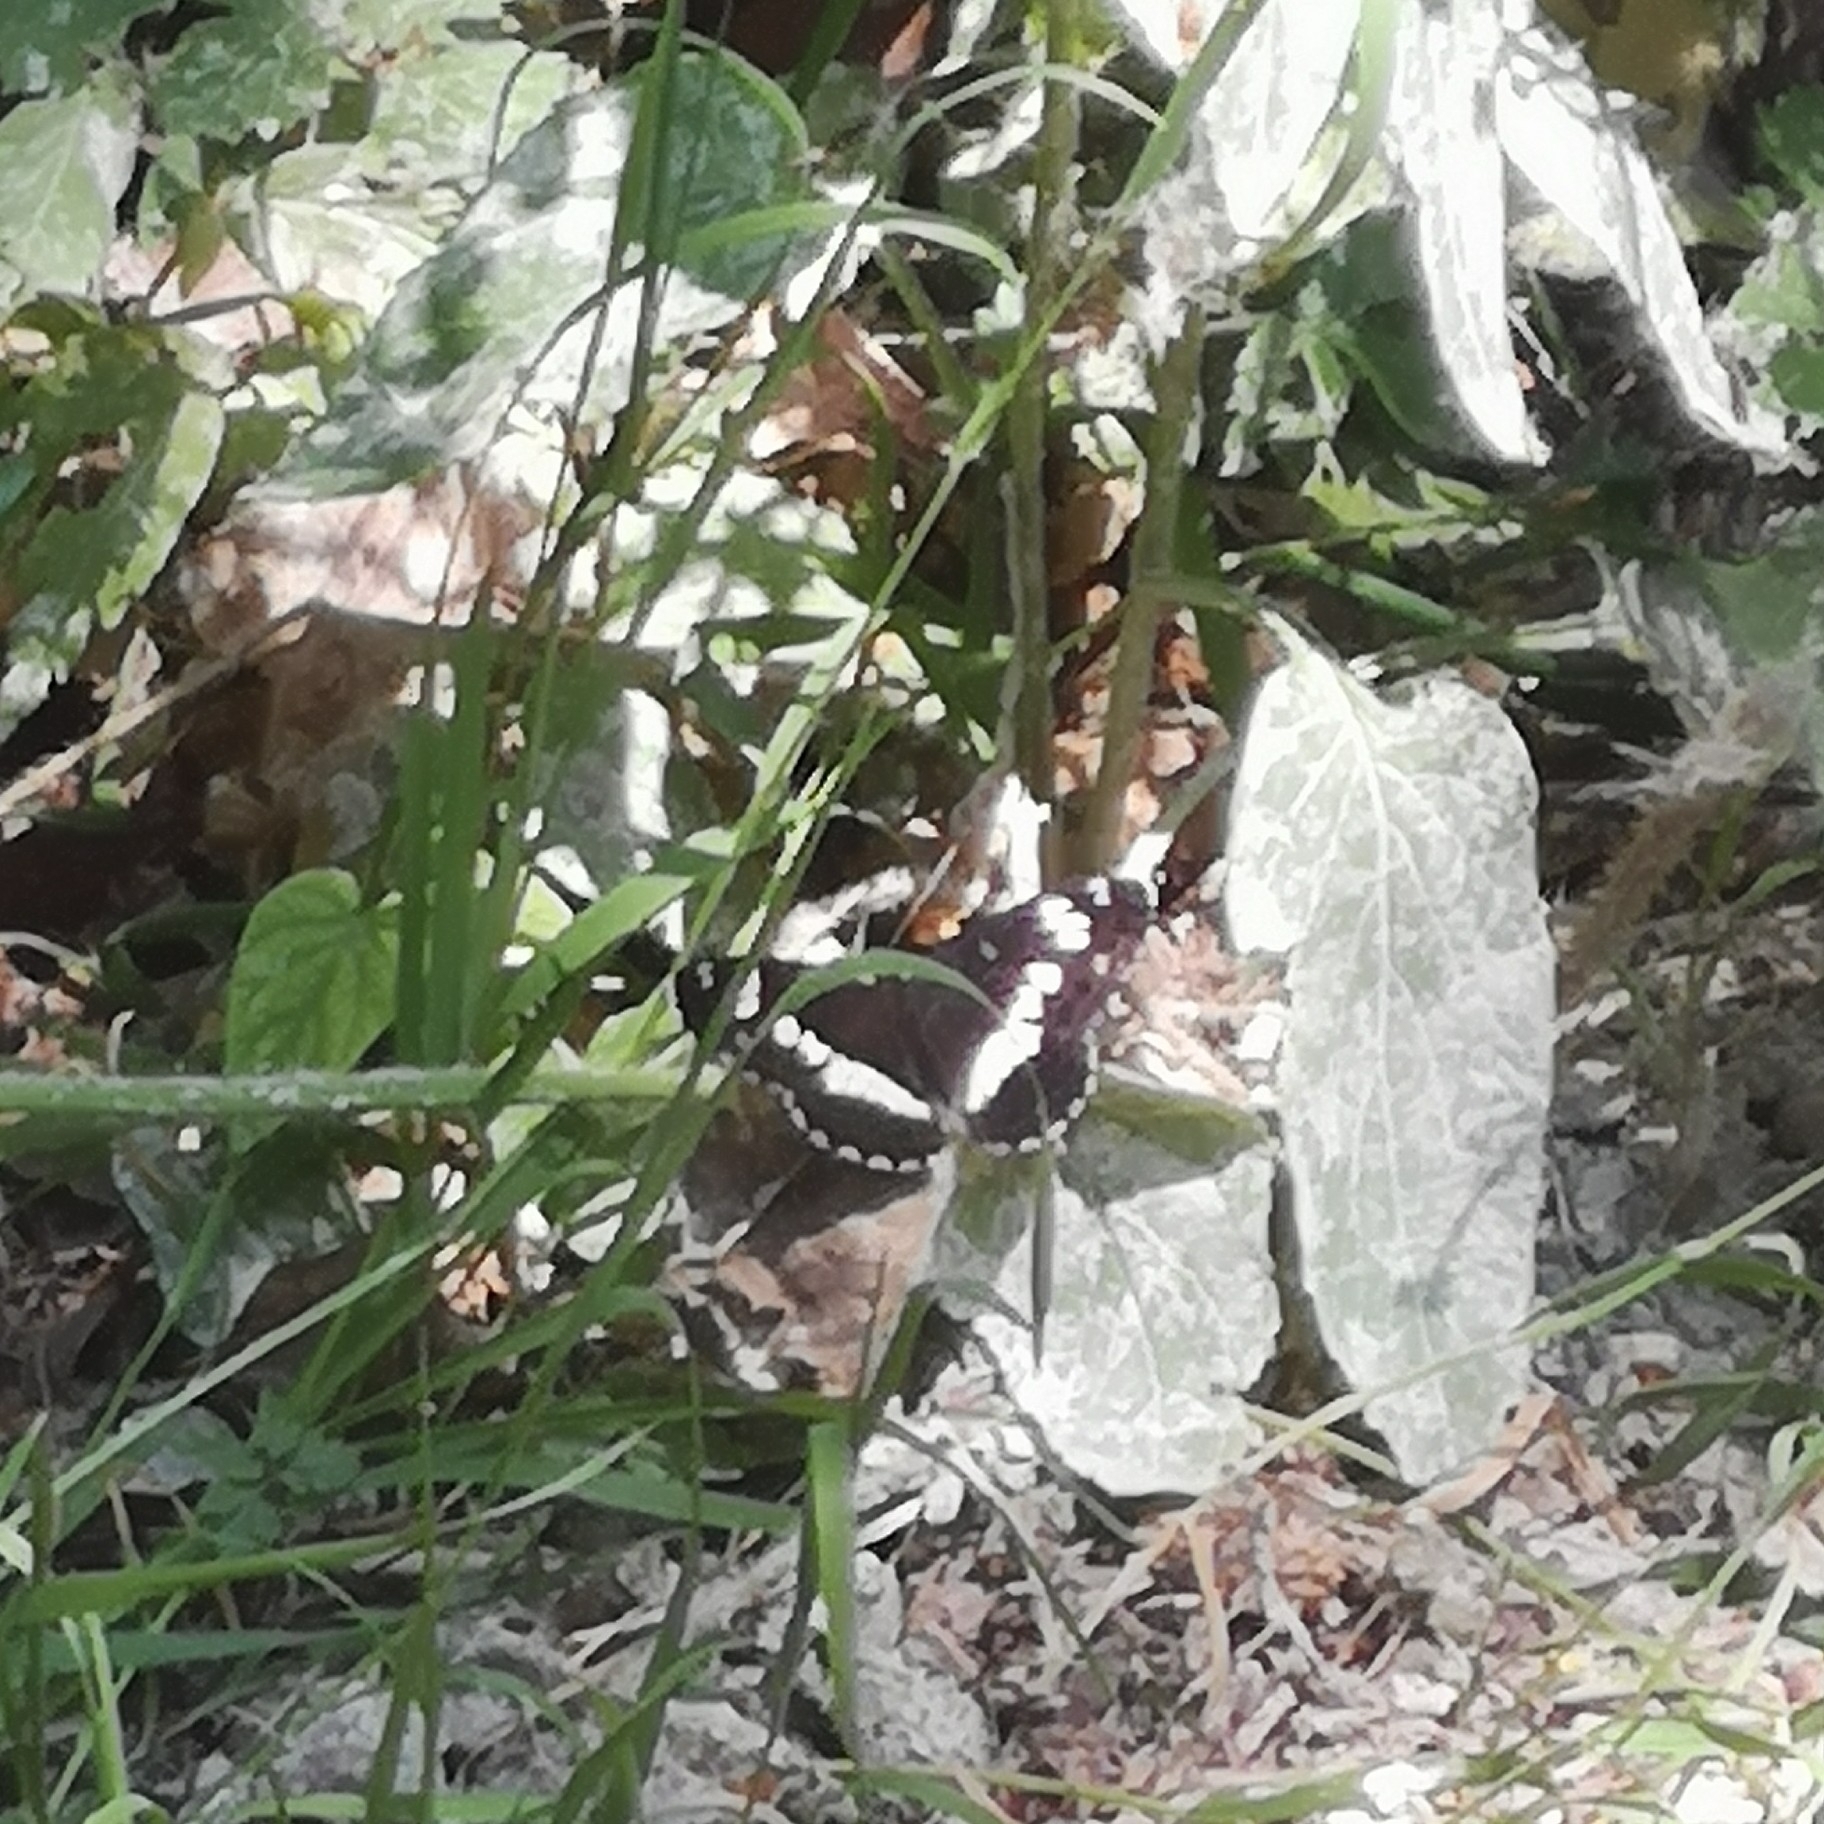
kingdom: Animalia
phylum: Arthropoda
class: Insecta
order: Lepidoptera
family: Nymphalidae
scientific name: Nymphalidae
